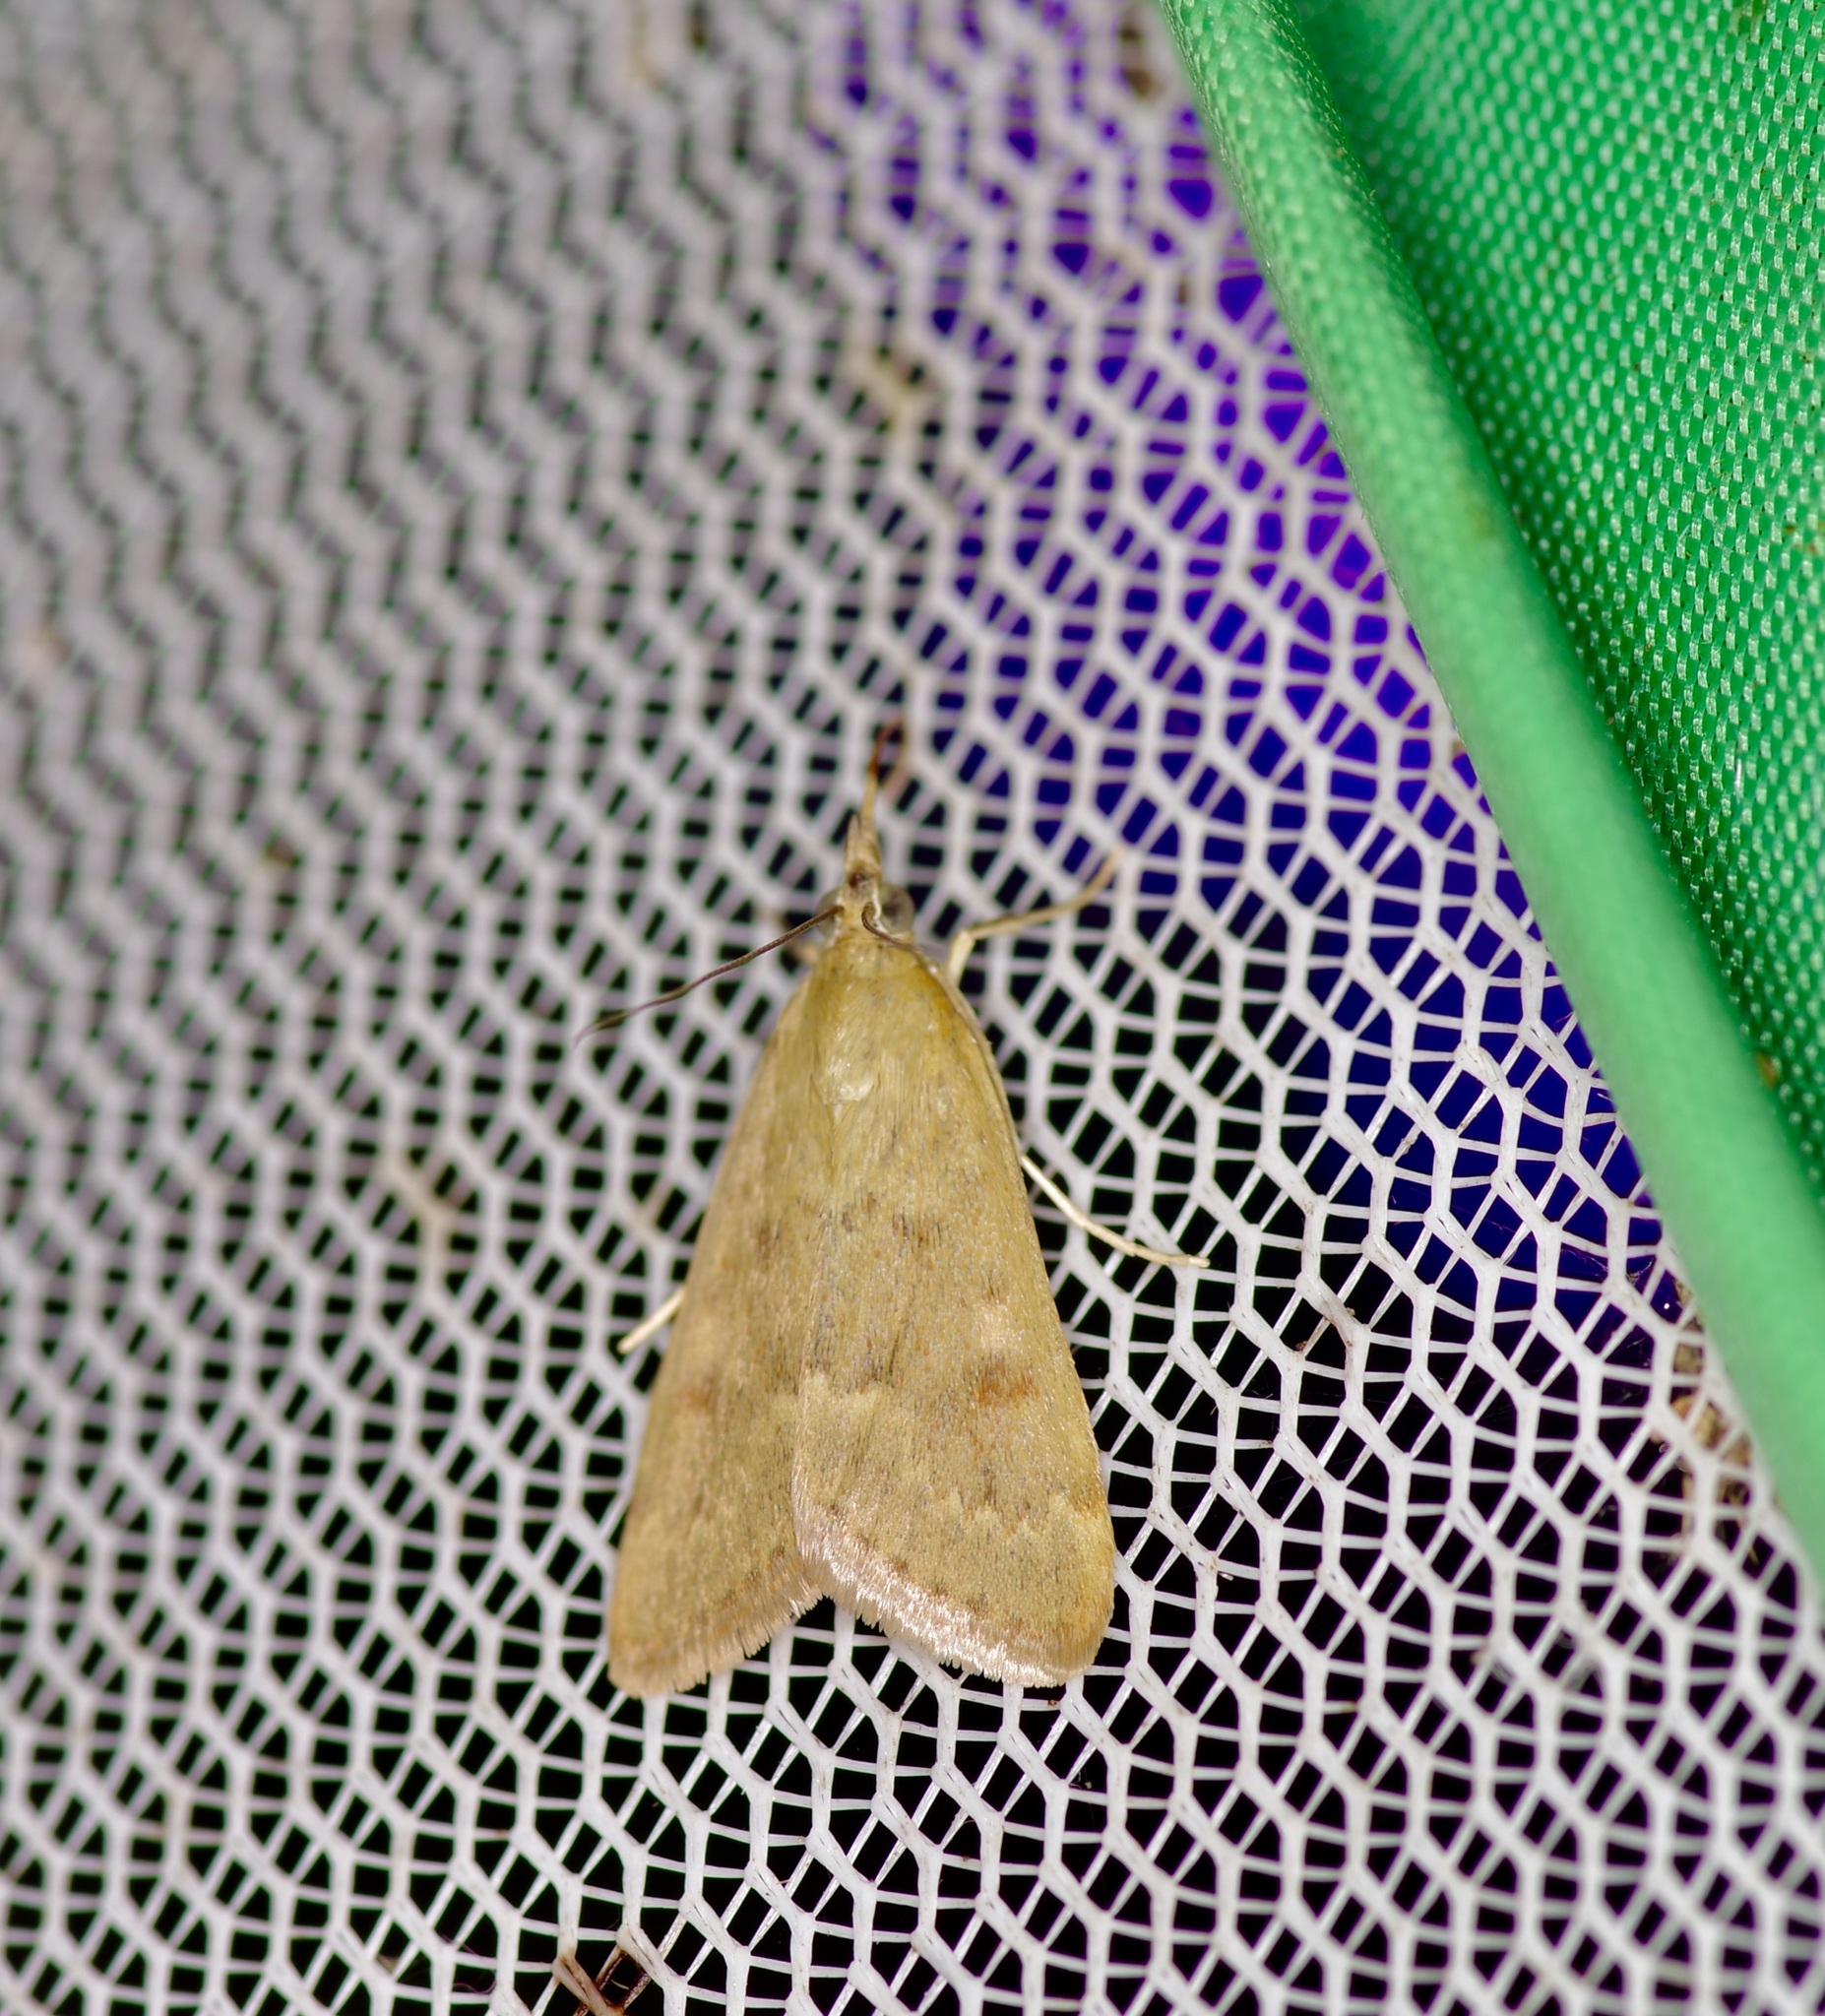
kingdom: Animalia
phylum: Arthropoda
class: Insecta
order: Lepidoptera
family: Crambidae
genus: Achyra
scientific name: Achyra rantalis
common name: Garden webworm
